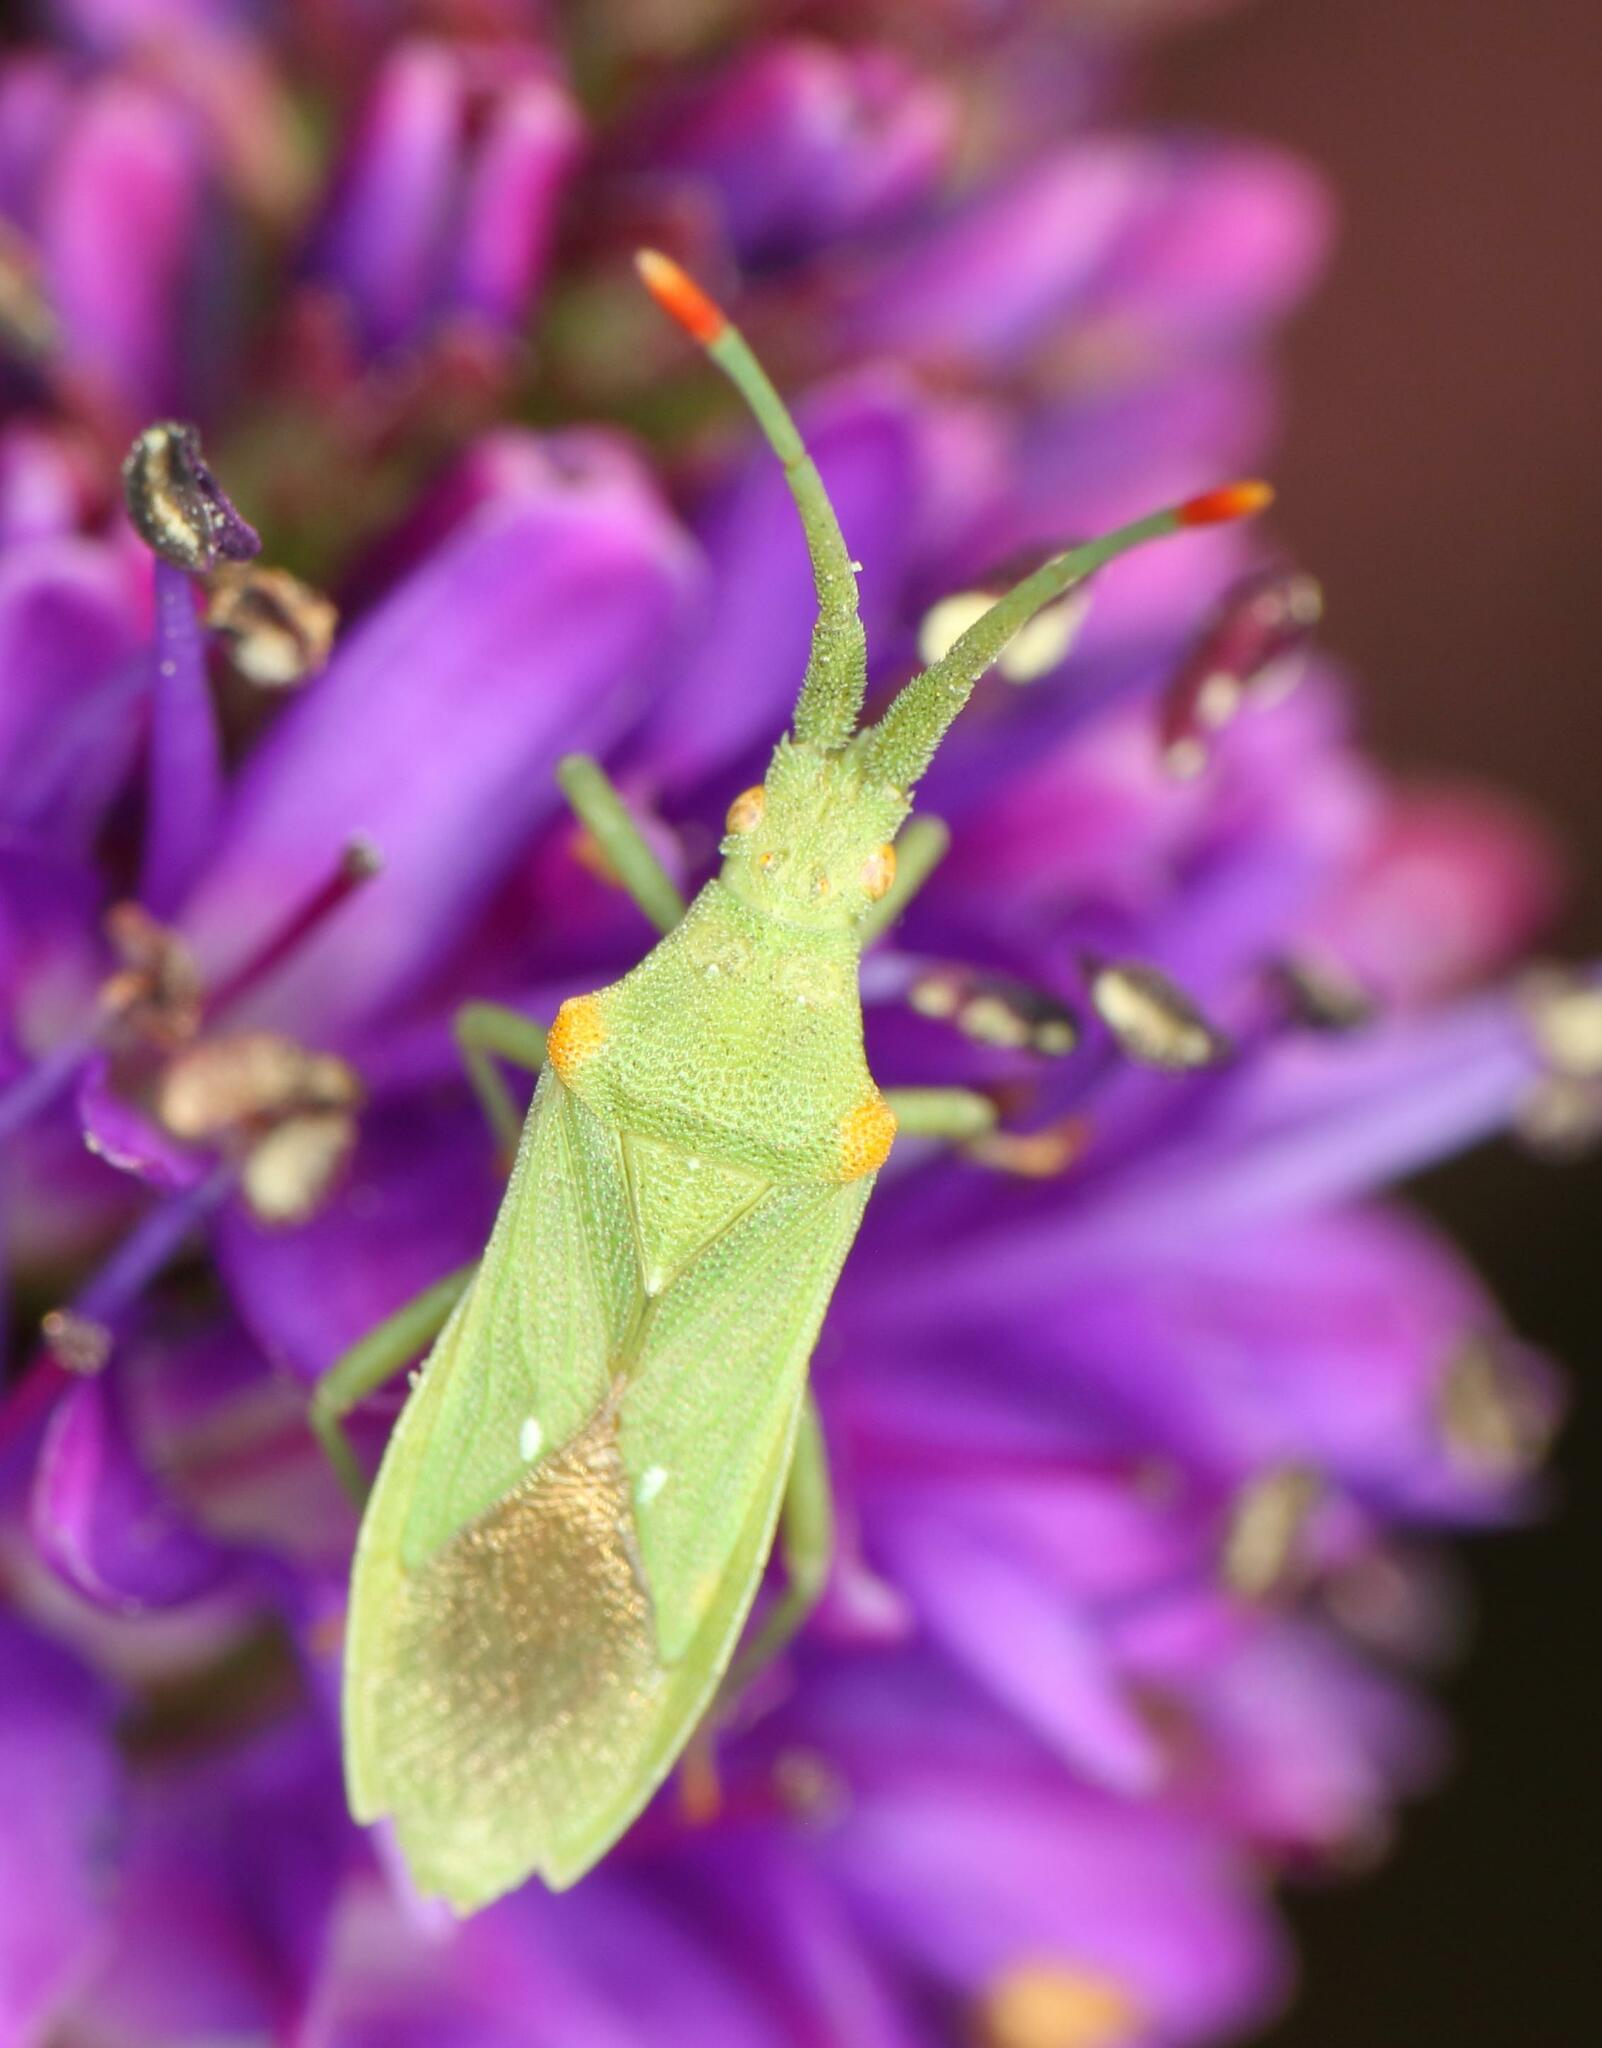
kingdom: Animalia
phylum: Arthropoda
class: Insecta
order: Hemiptera
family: Coreidae
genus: Brotheolus
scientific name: Brotheolus viridis
